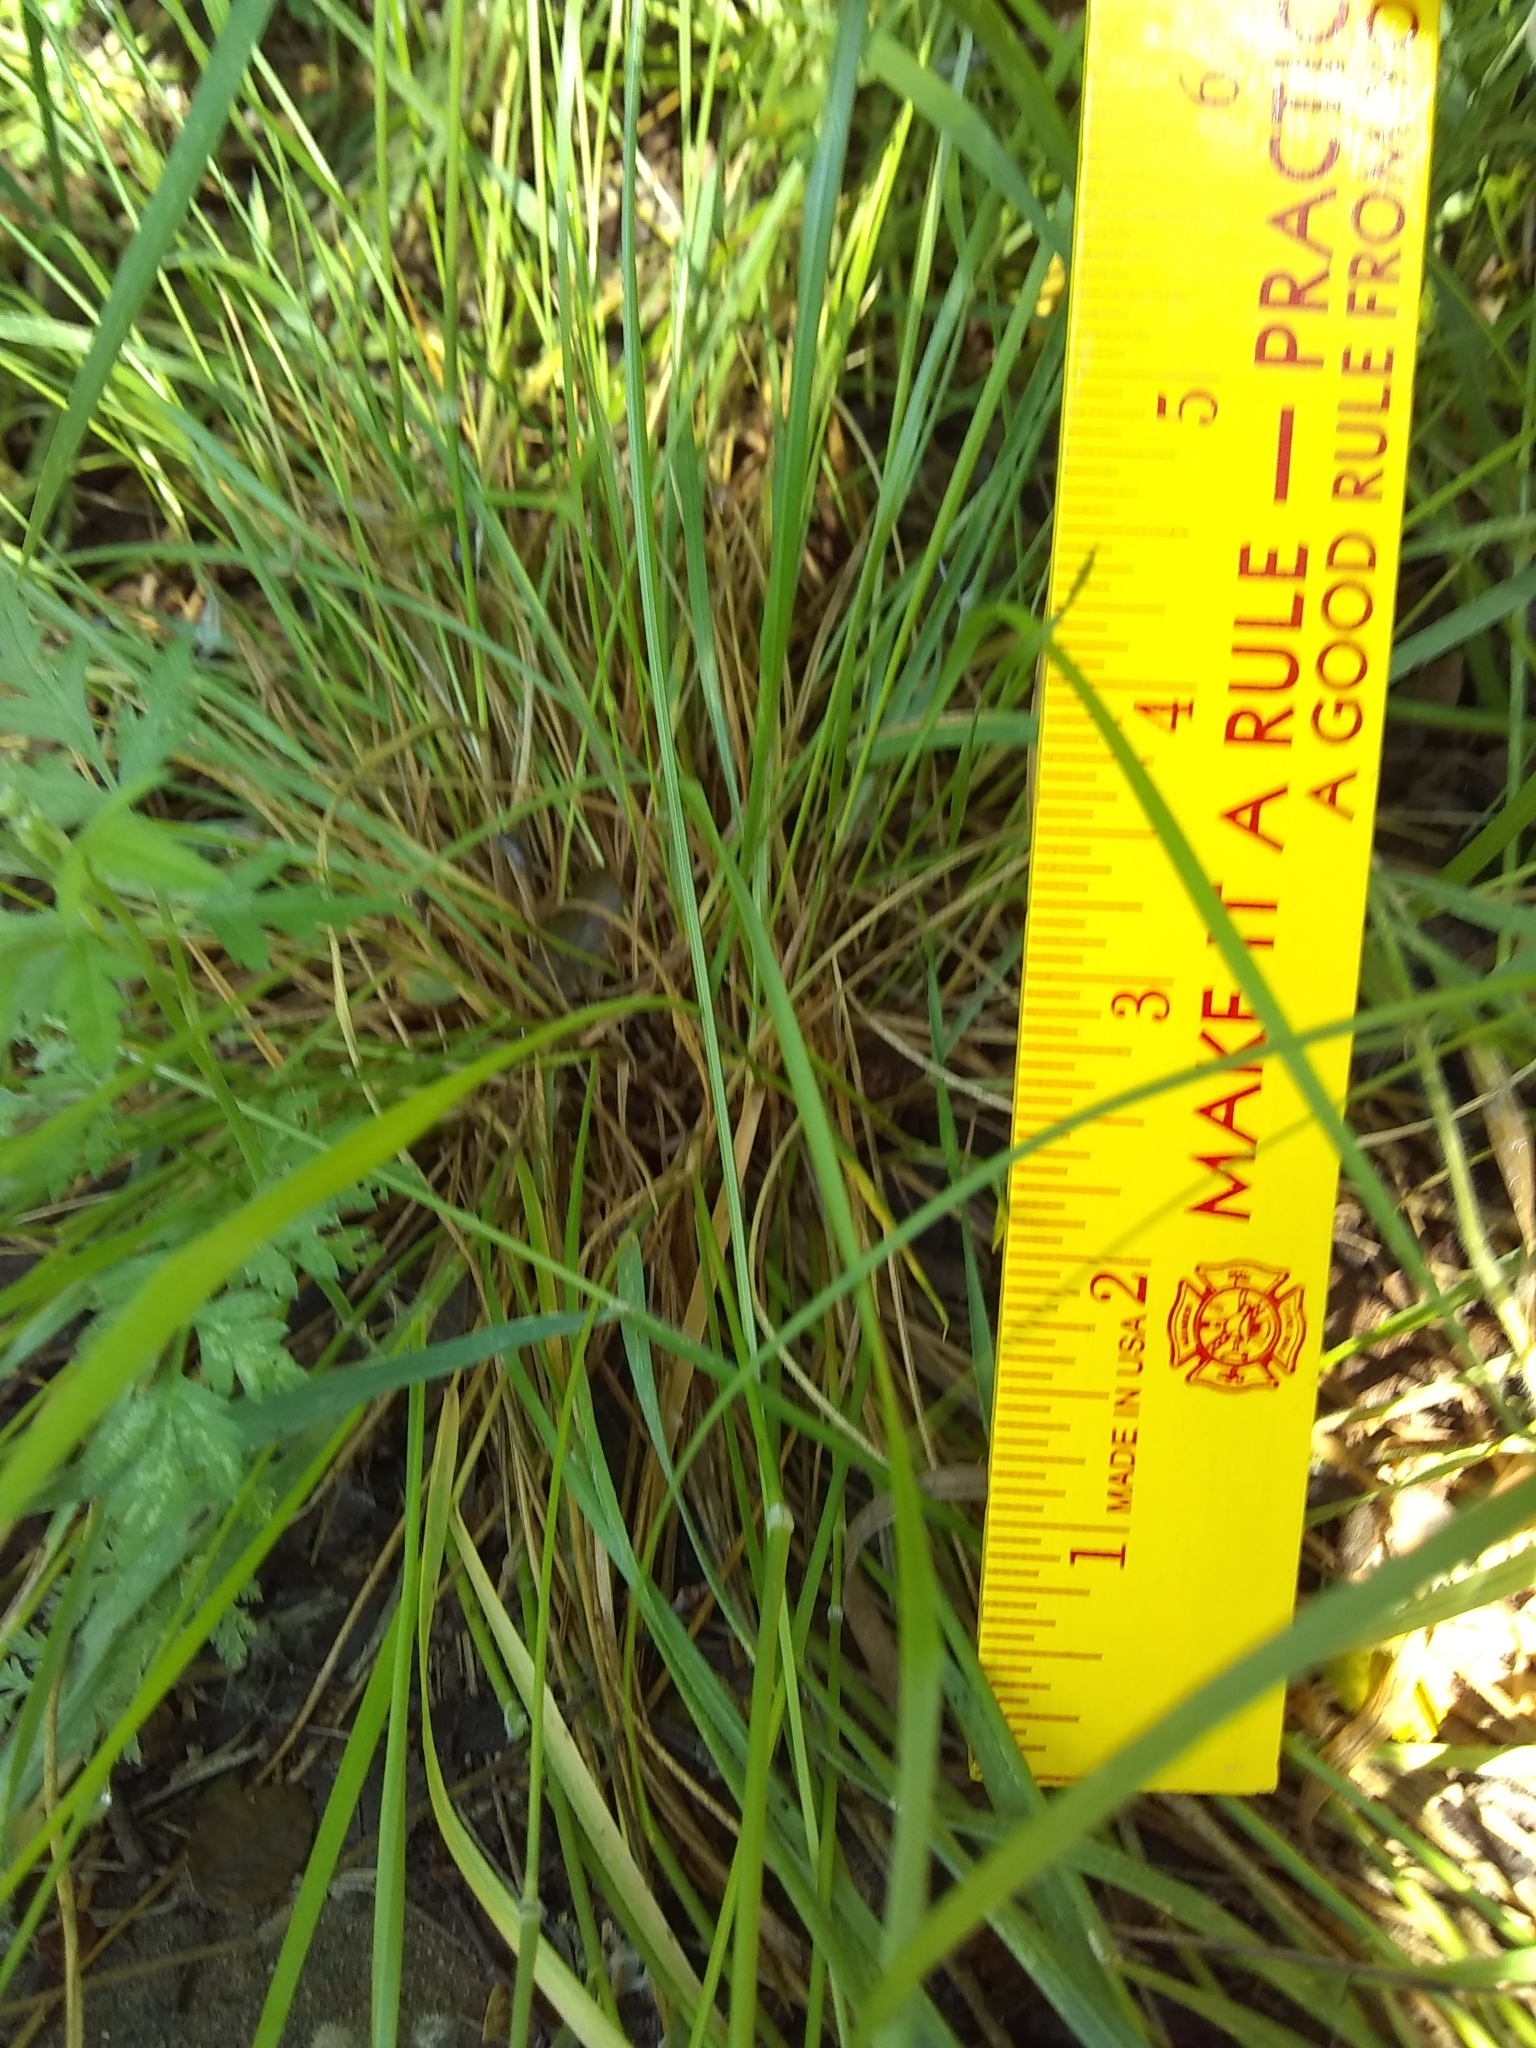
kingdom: Plantae
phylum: Tracheophyta
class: Liliopsida
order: Poales
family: Poaceae
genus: Nassella
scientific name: Nassella leucotricha
